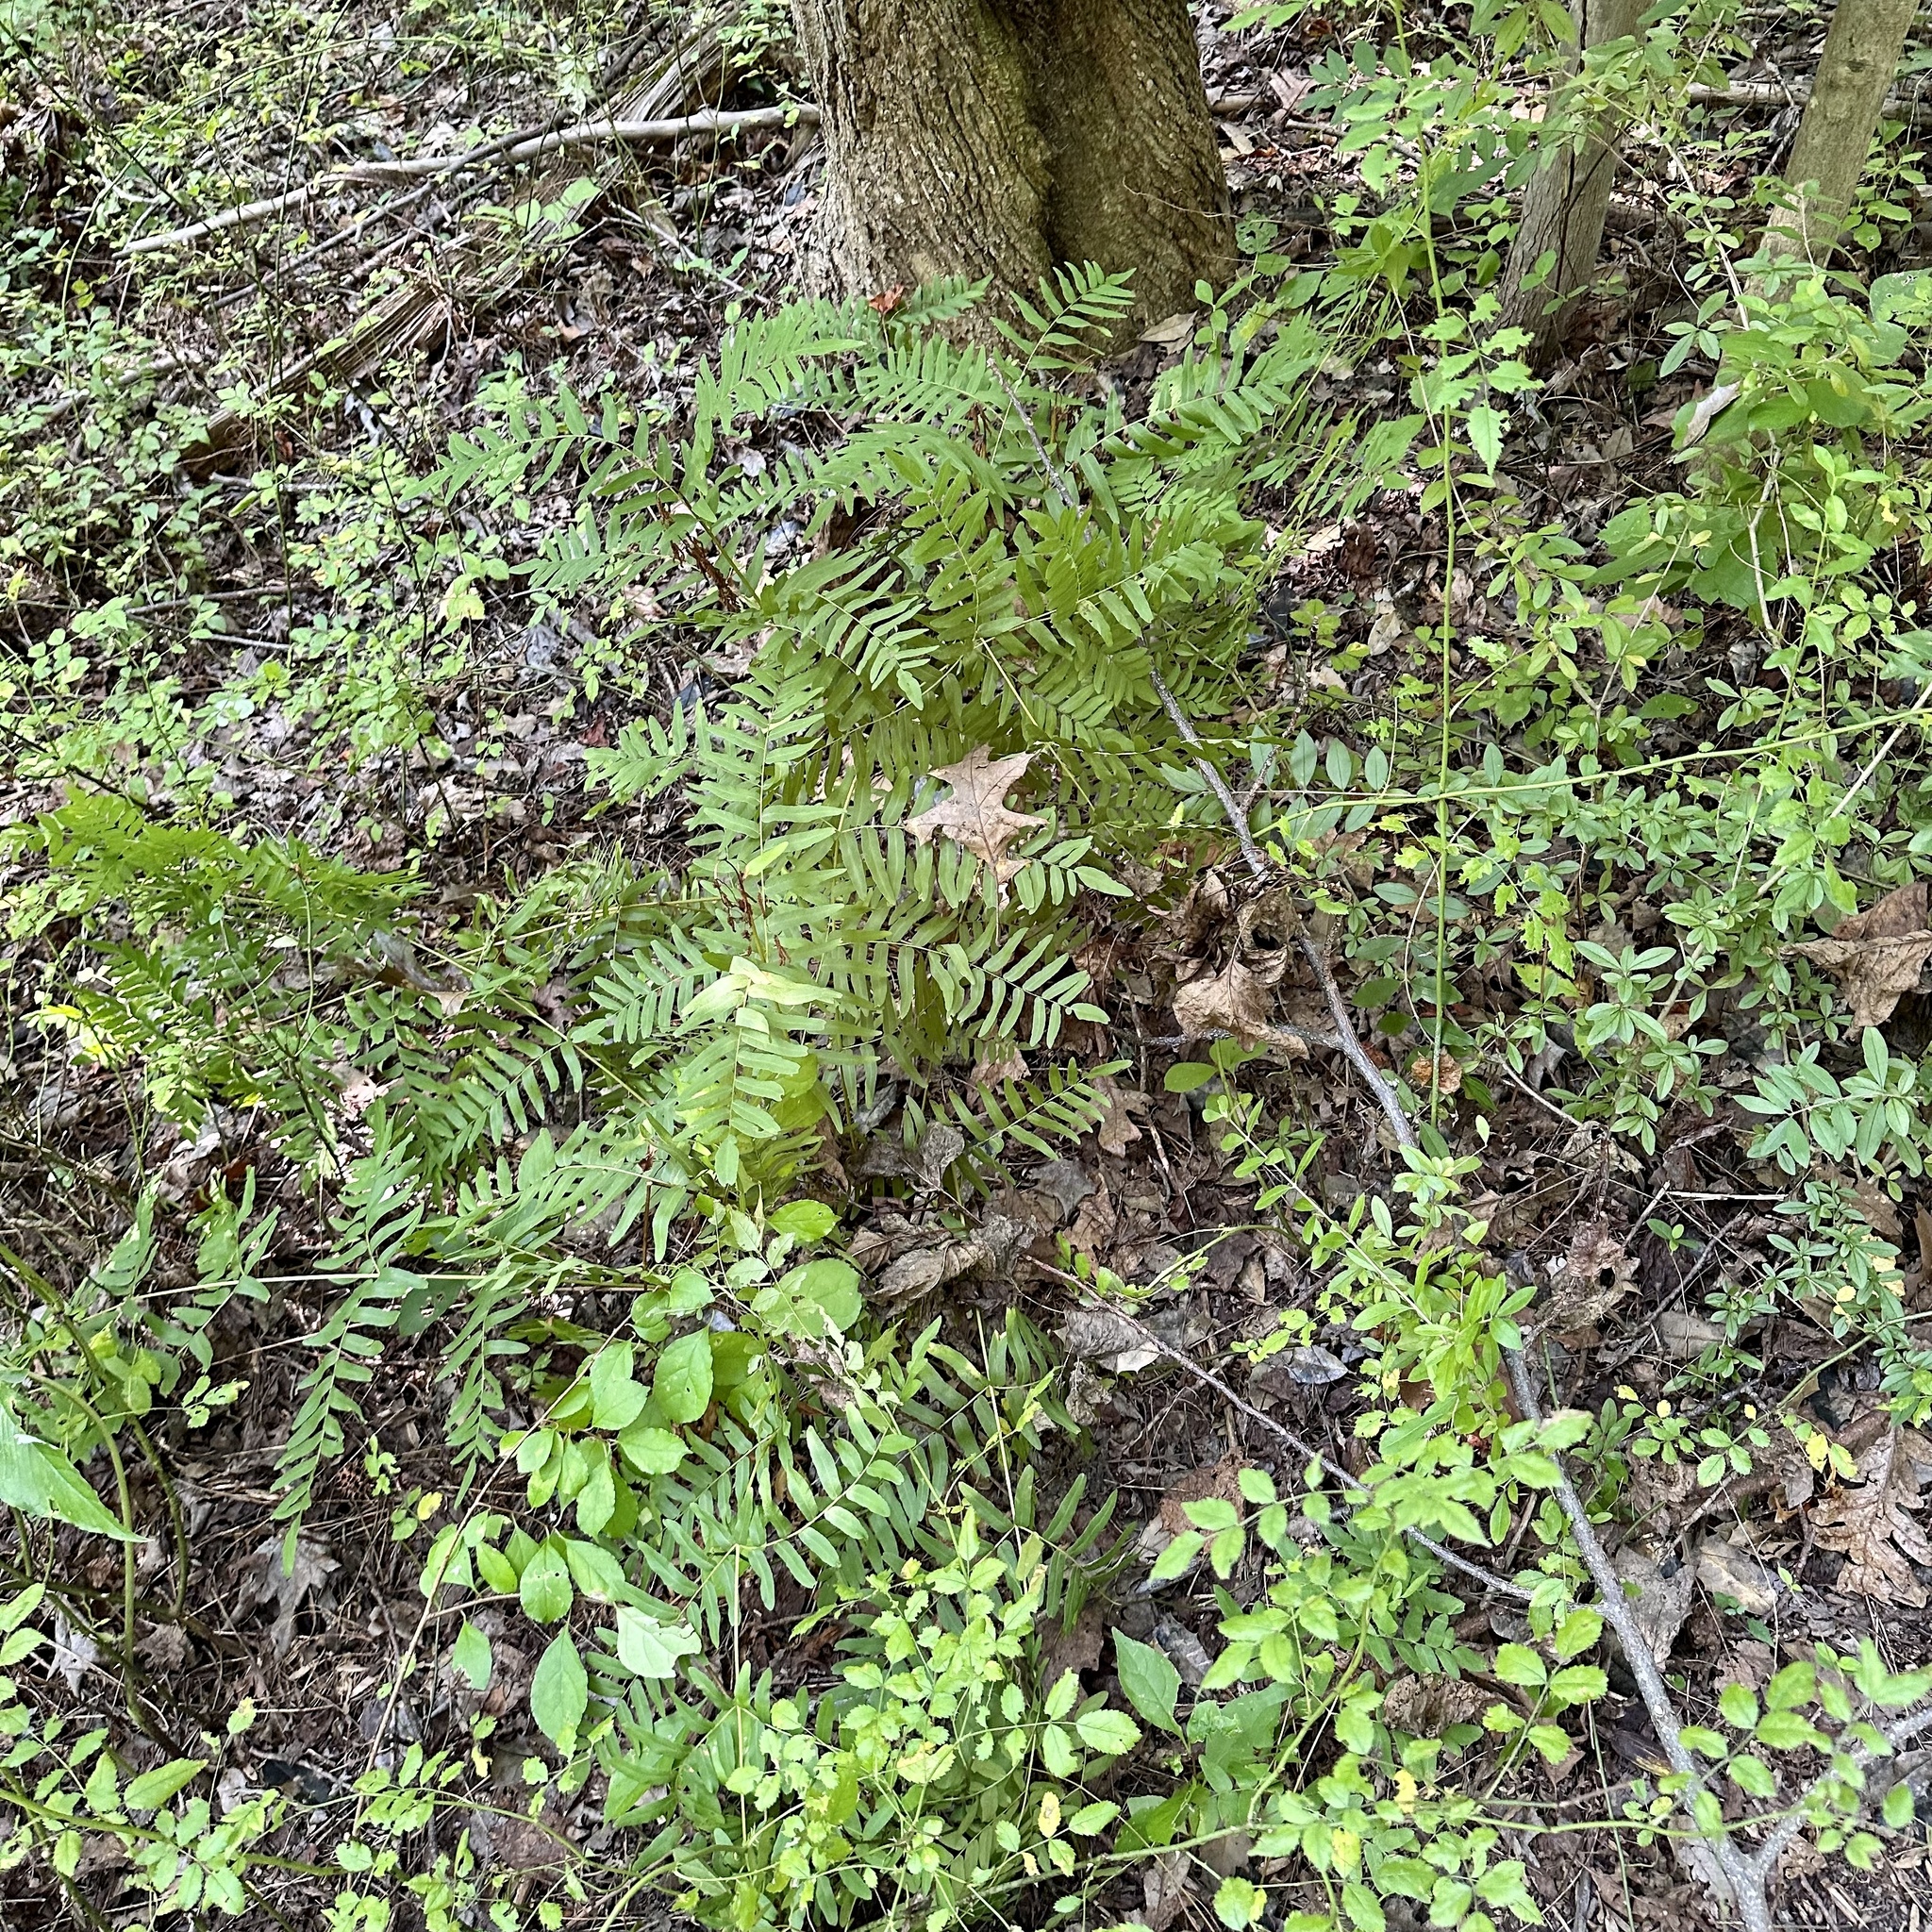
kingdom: Plantae
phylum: Tracheophyta
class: Polypodiopsida
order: Osmundales
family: Osmundaceae
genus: Osmunda
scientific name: Osmunda spectabilis
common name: American royal fern
